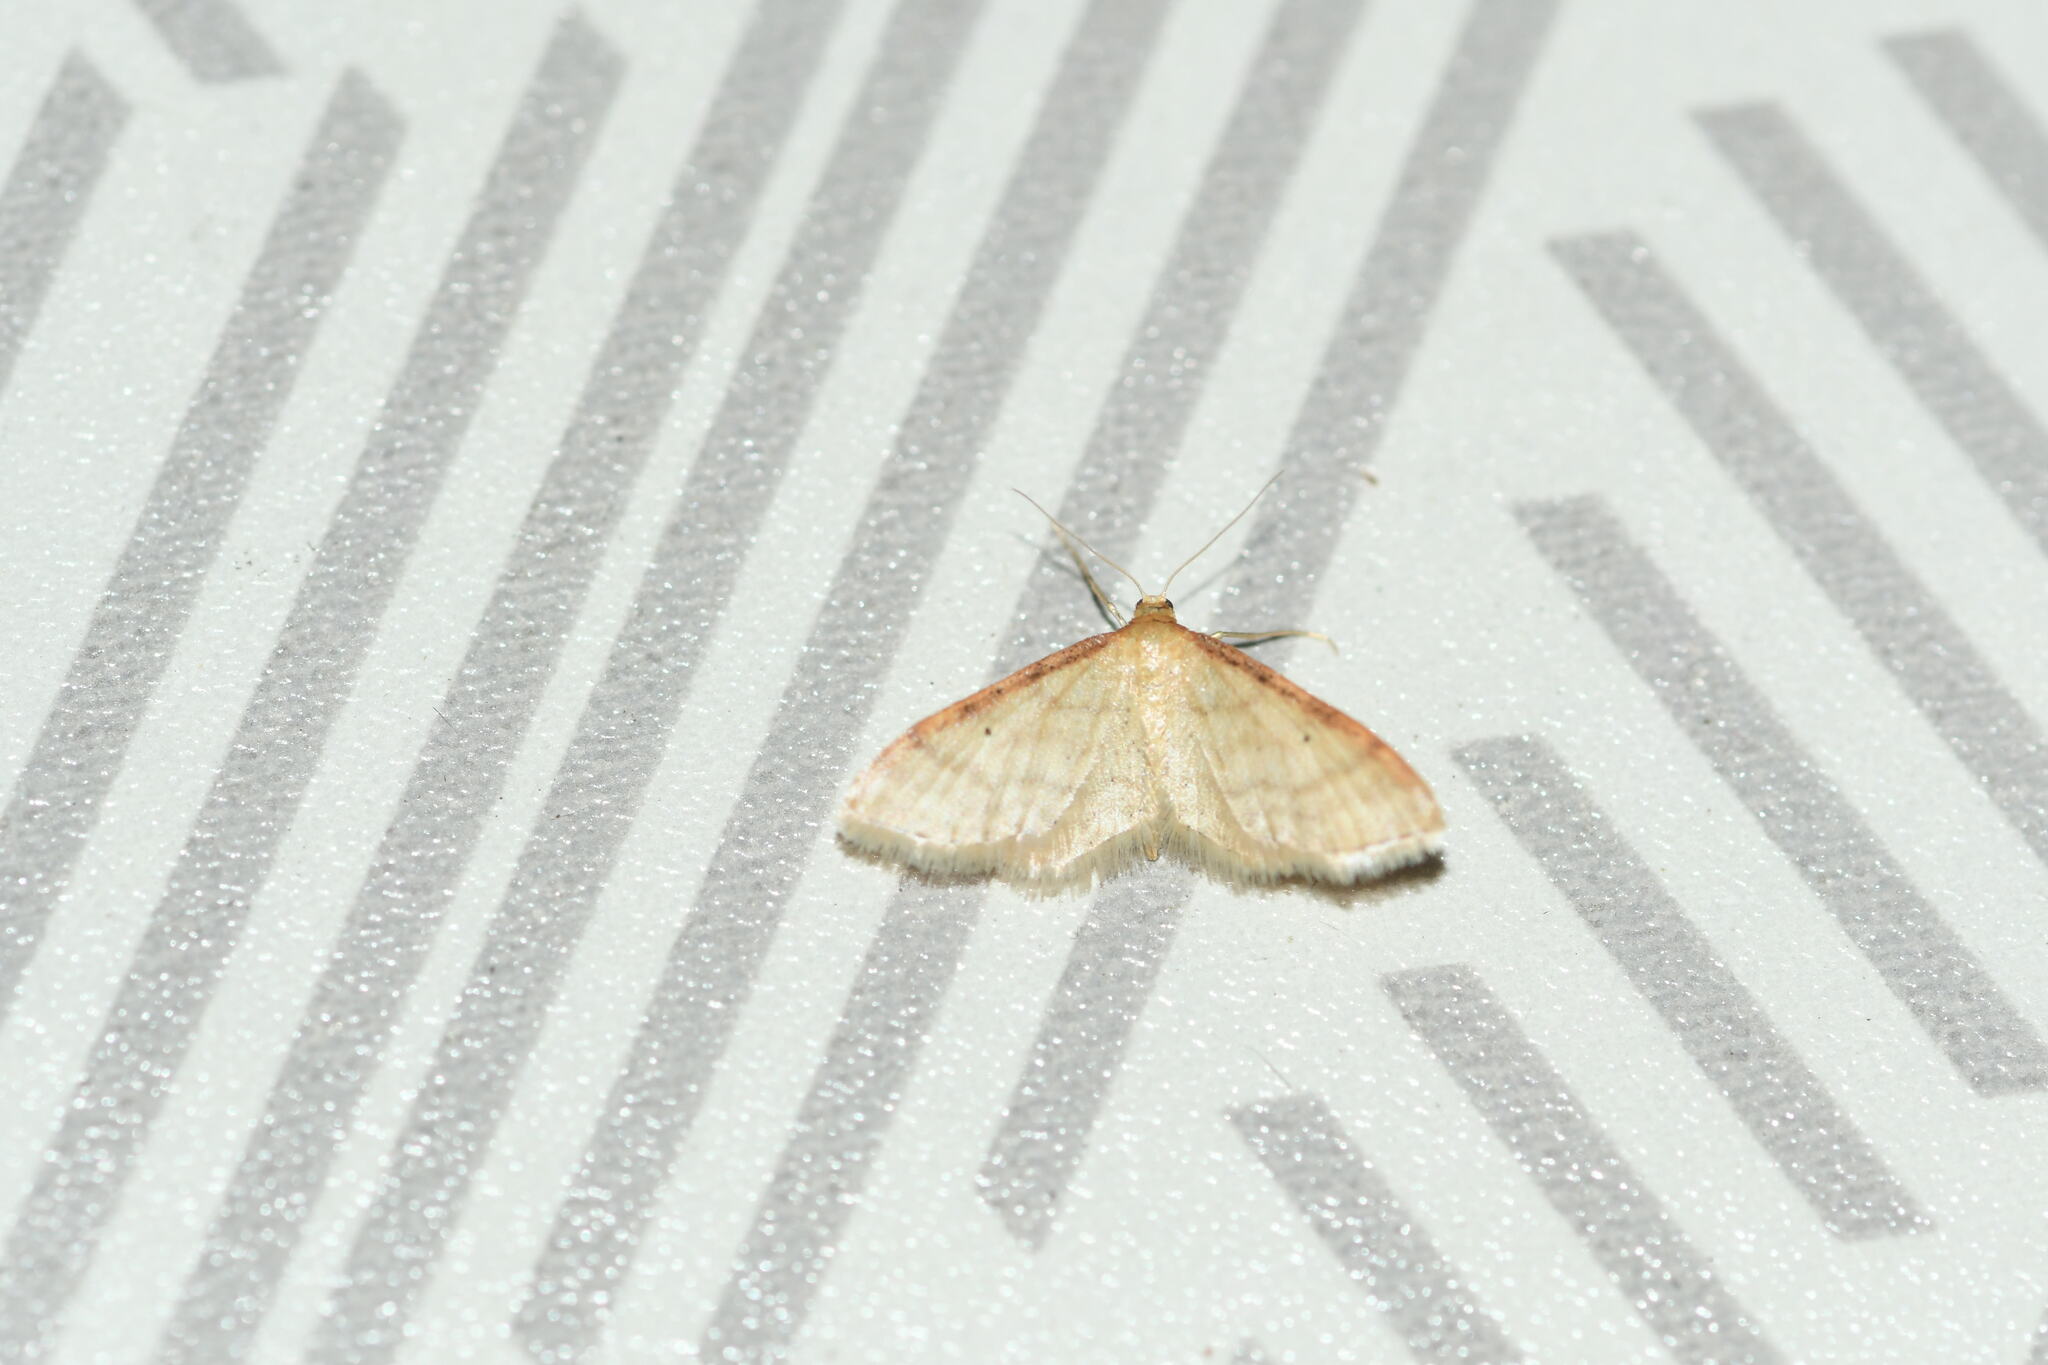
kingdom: Animalia
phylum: Arthropoda
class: Insecta
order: Lepidoptera
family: Geometridae
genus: Idaea
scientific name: Idaea humiliata
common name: Isle of wight wave
